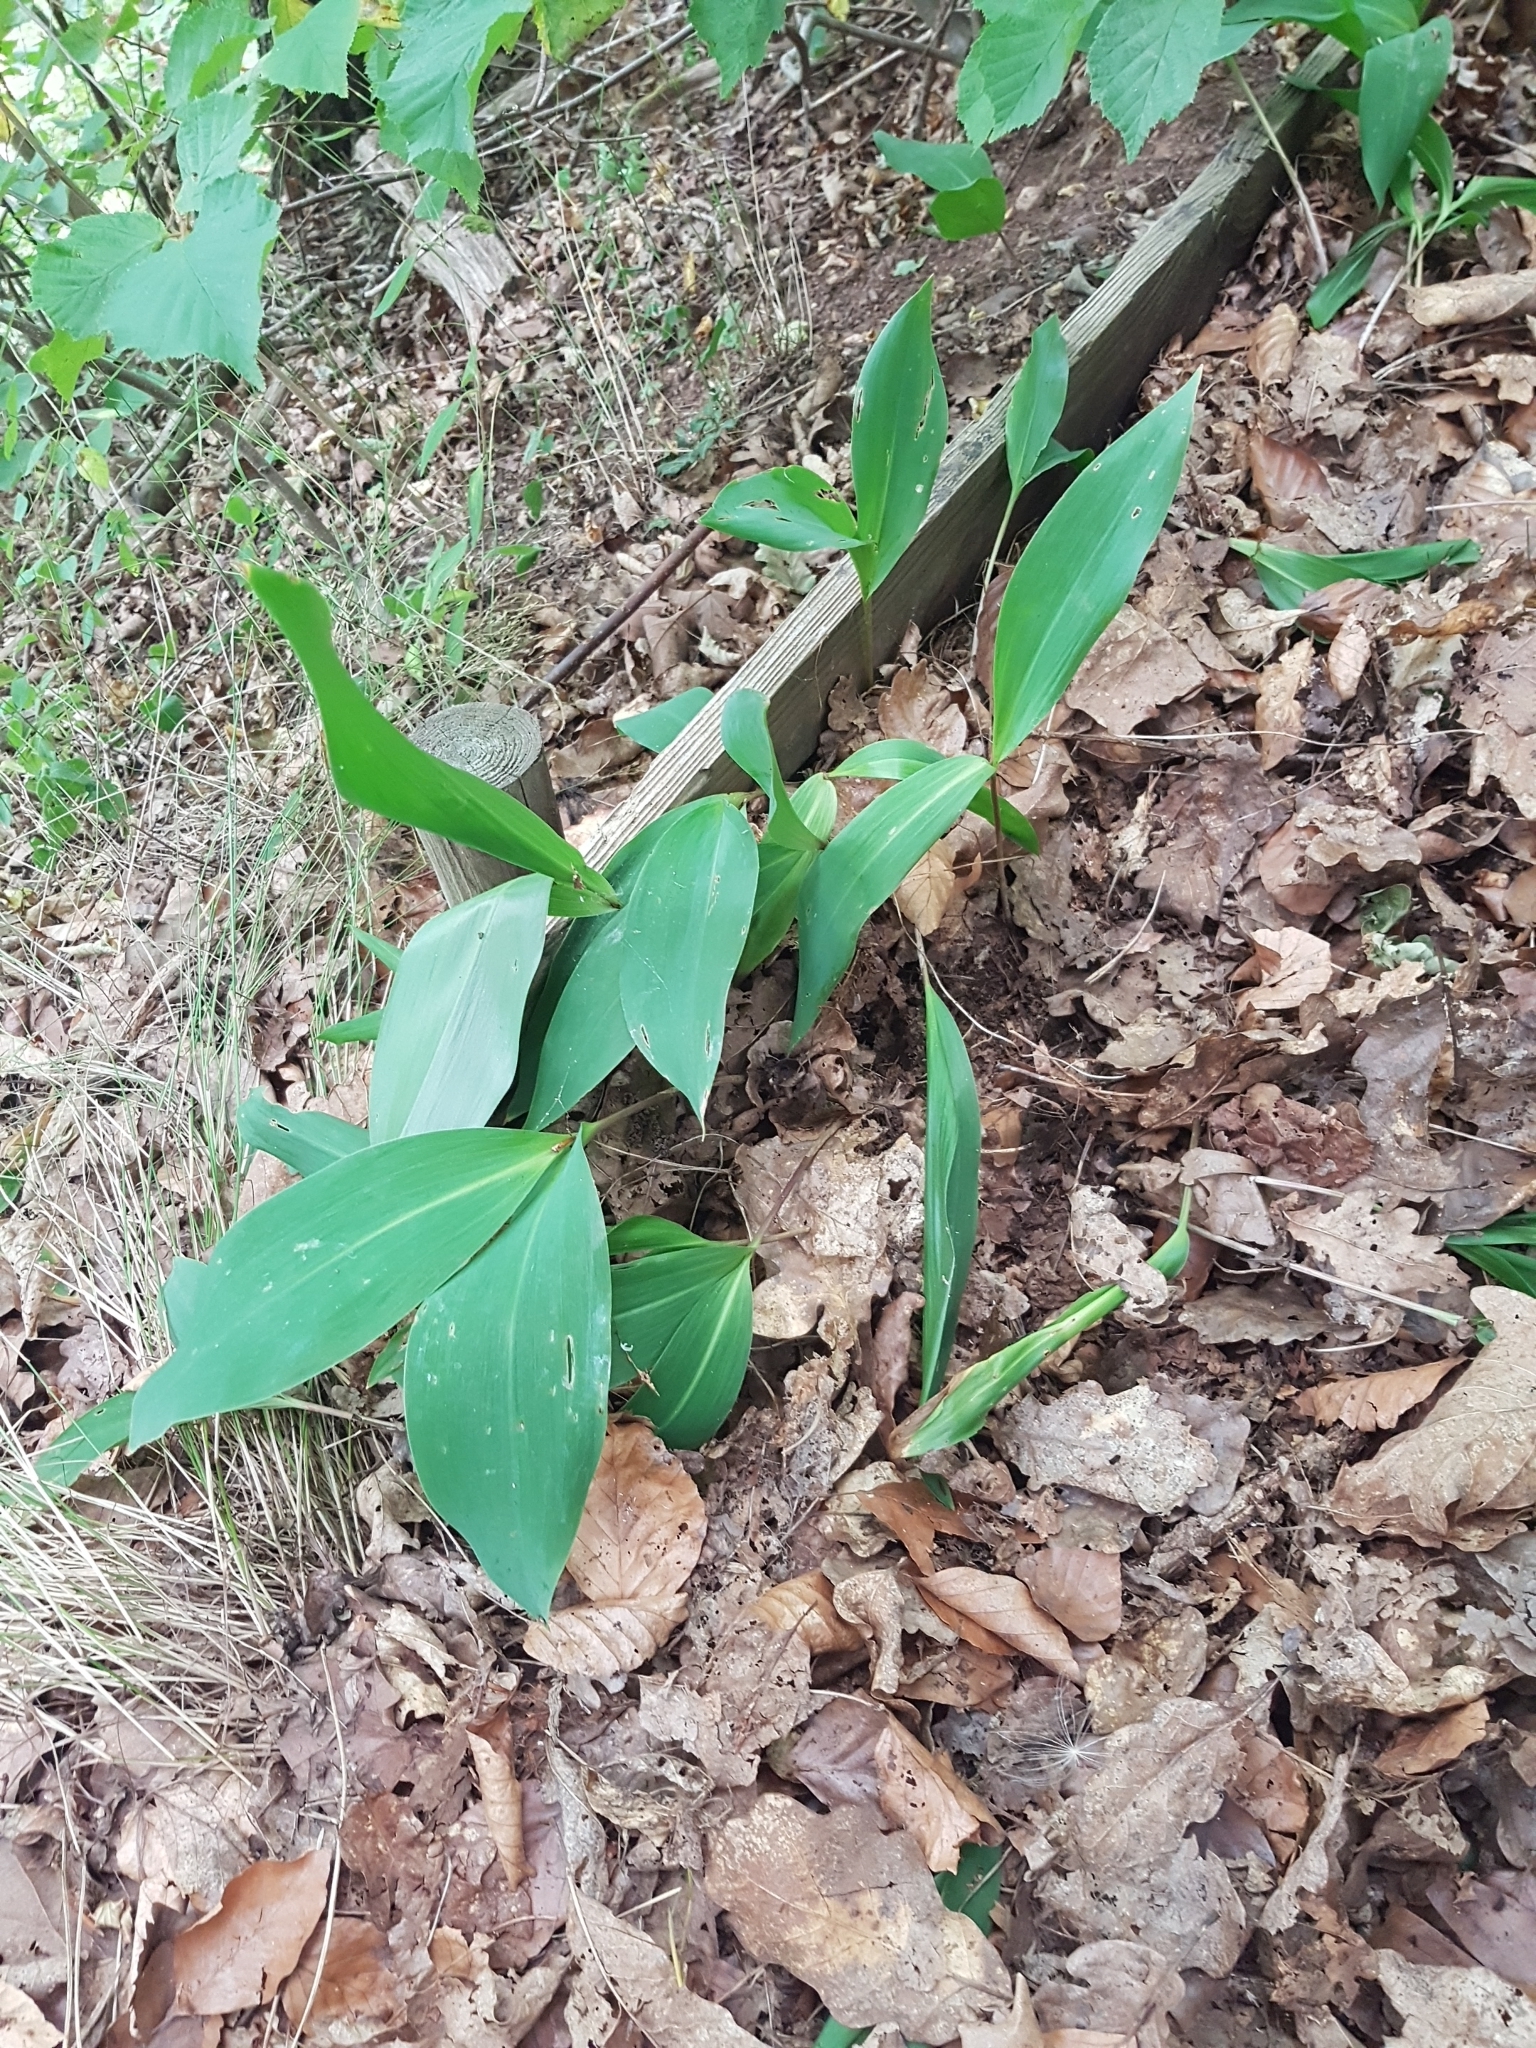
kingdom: Plantae
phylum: Tracheophyta
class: Liliopsida
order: Asparagales
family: Asparagaceae
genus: Convallaria
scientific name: Convallaria majalis
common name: Lily-of-the-valley
